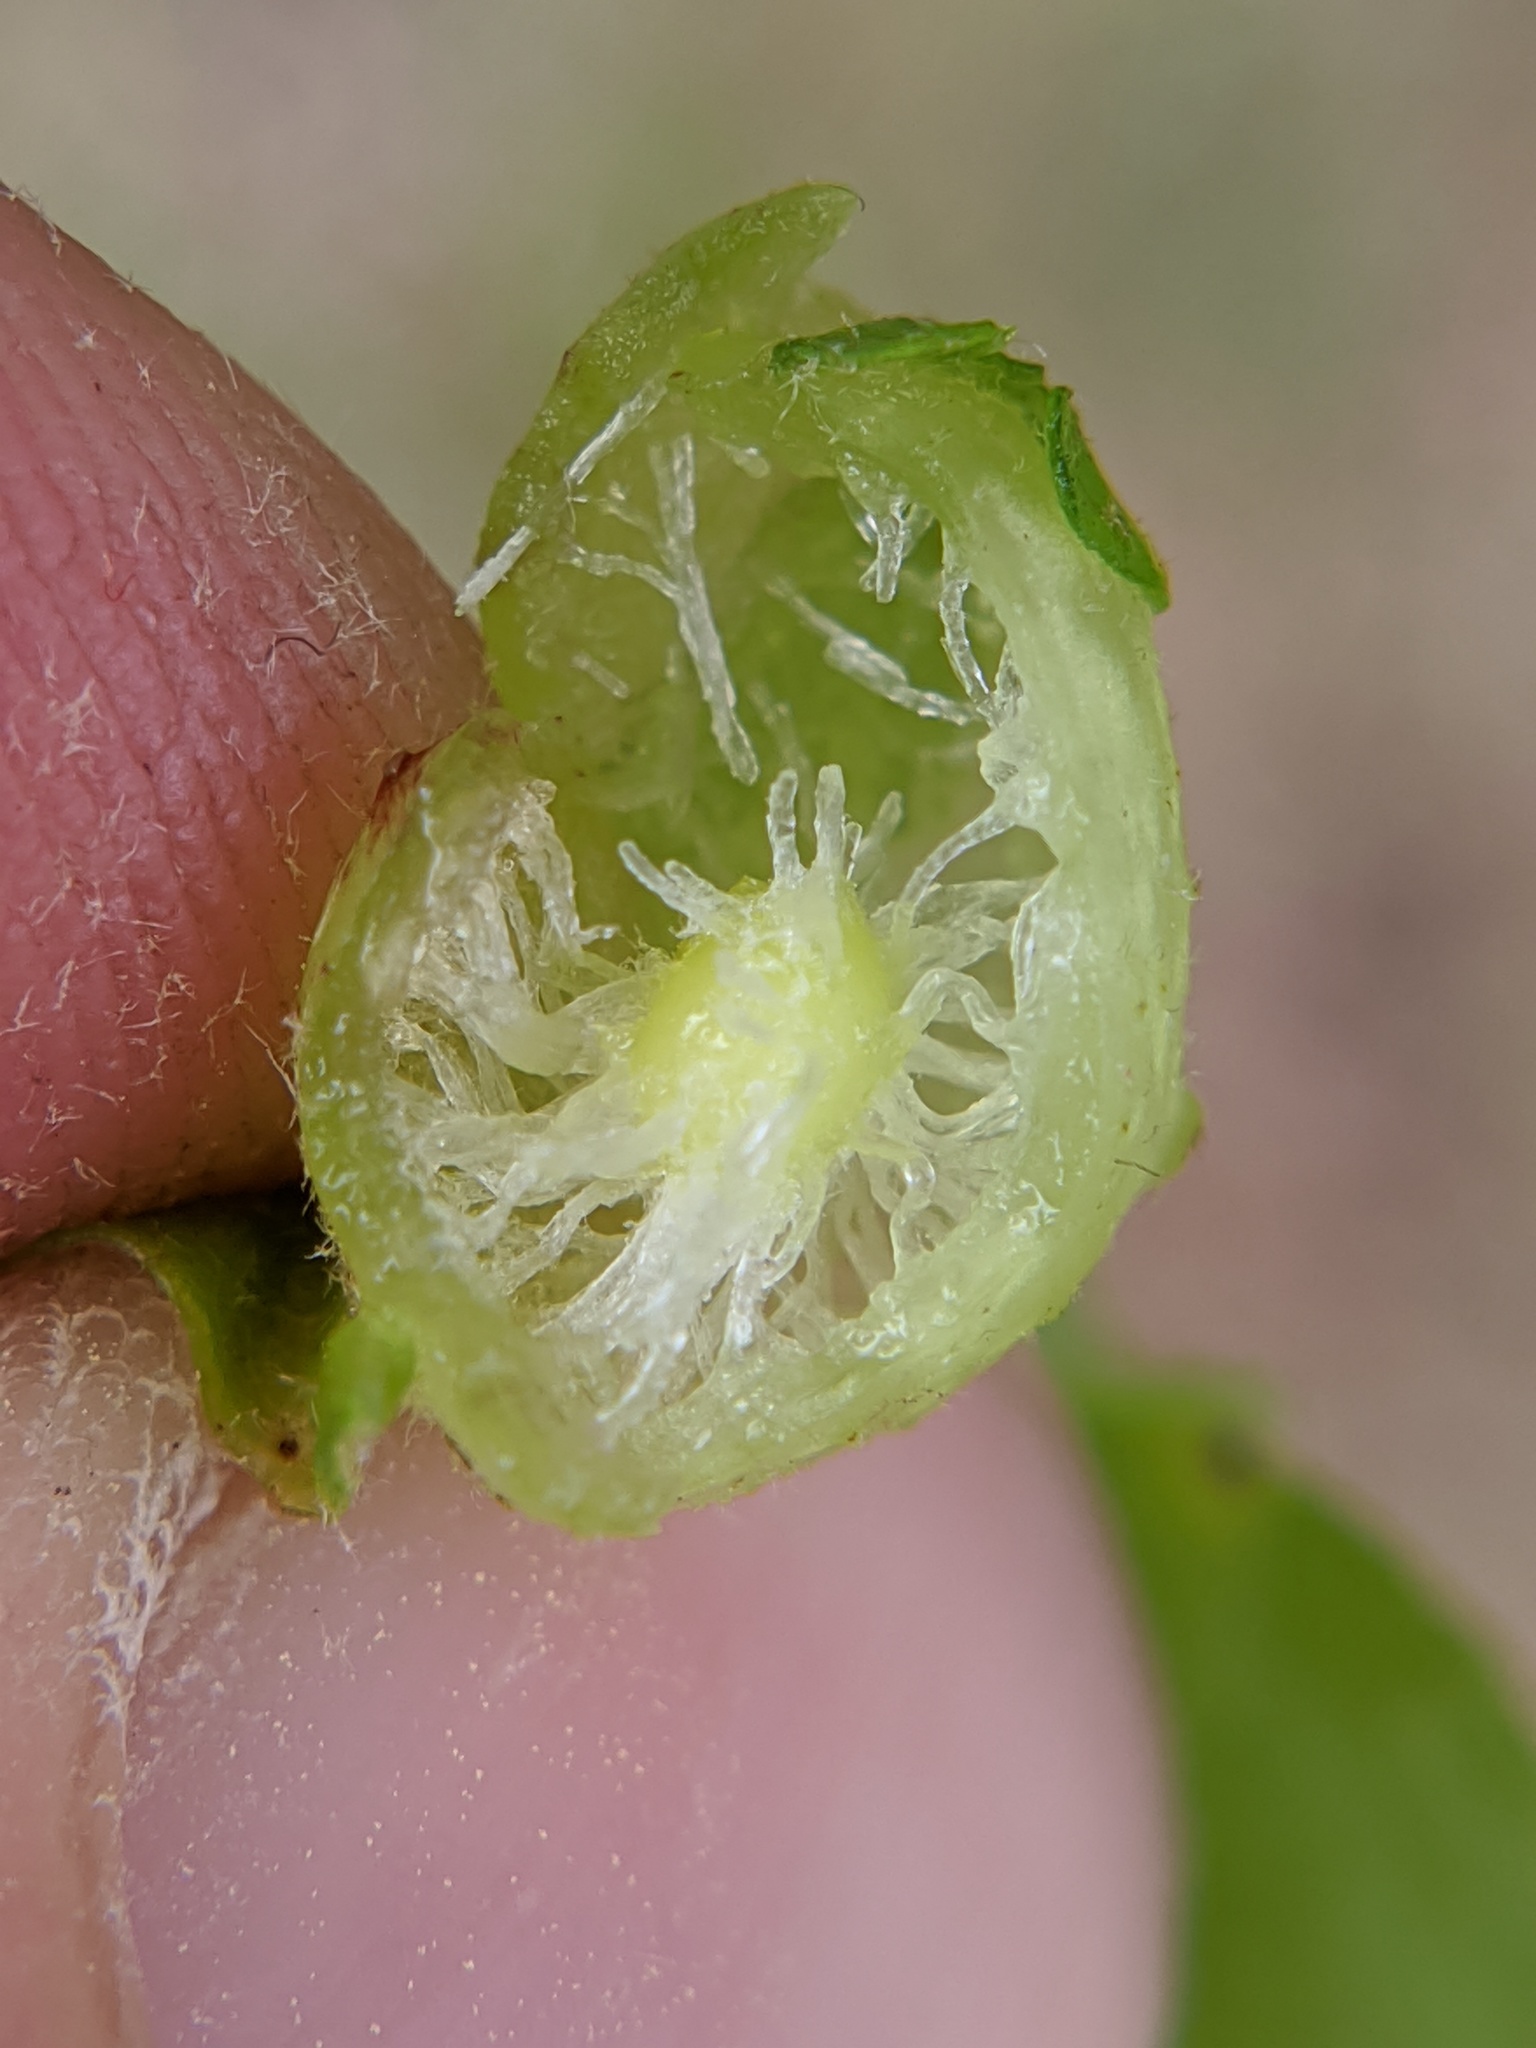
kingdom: Animalia
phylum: Arthropoda
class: Insecta
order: Hymenoptera
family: Cynipidae
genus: Amphibolips
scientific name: Amphibolips
